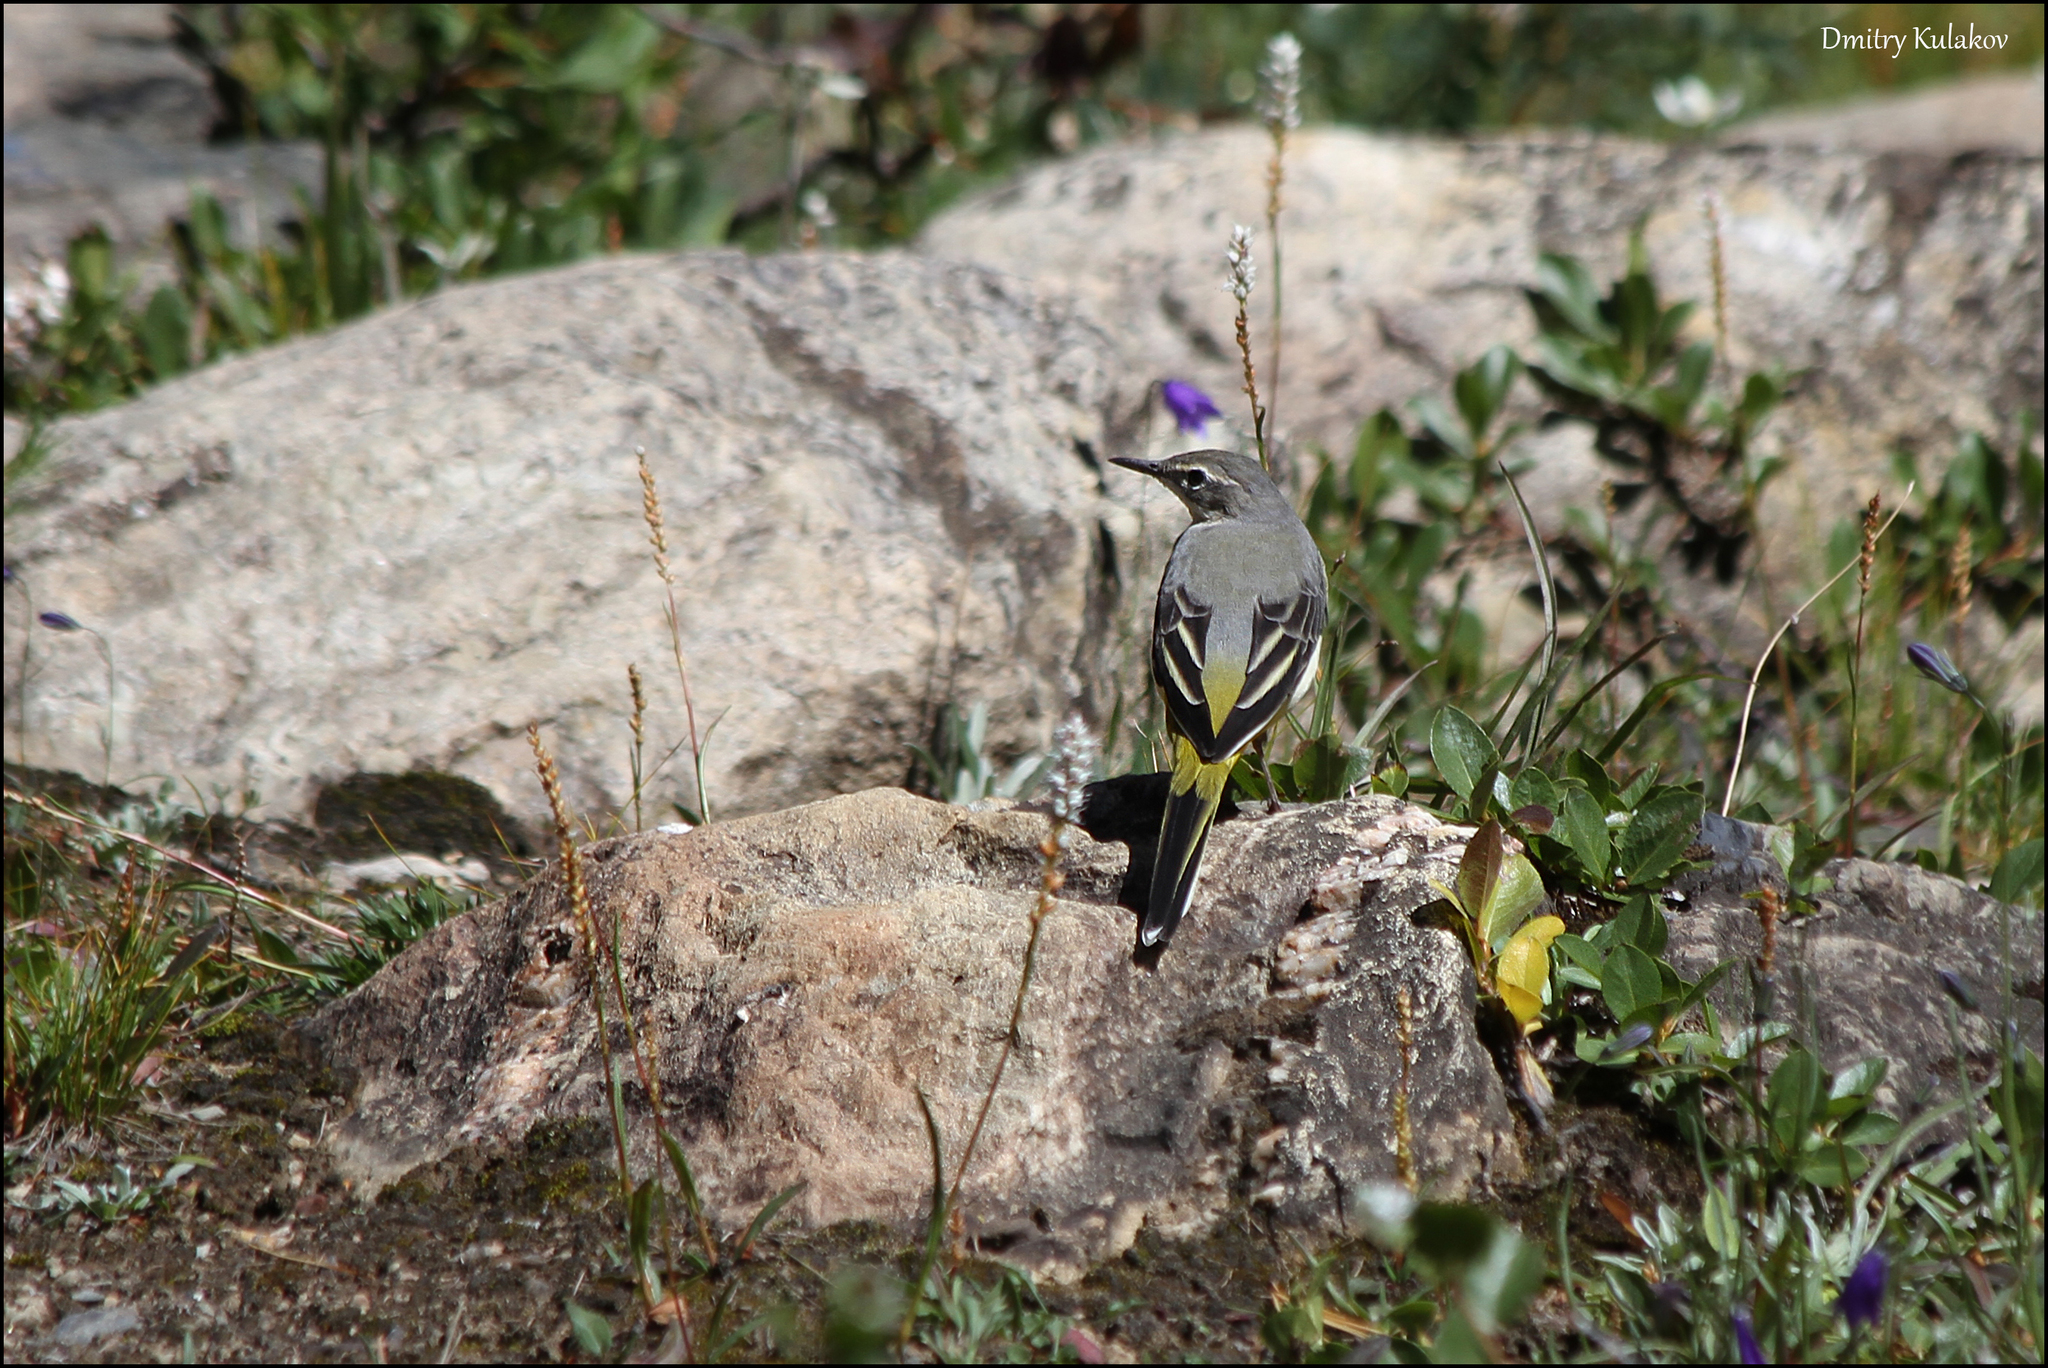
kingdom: Animalia
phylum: Chordata
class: Aves
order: Passeriformes
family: Motacillidae
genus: Motacilla
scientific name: Motacilla cinerea
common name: Grey wagtail
